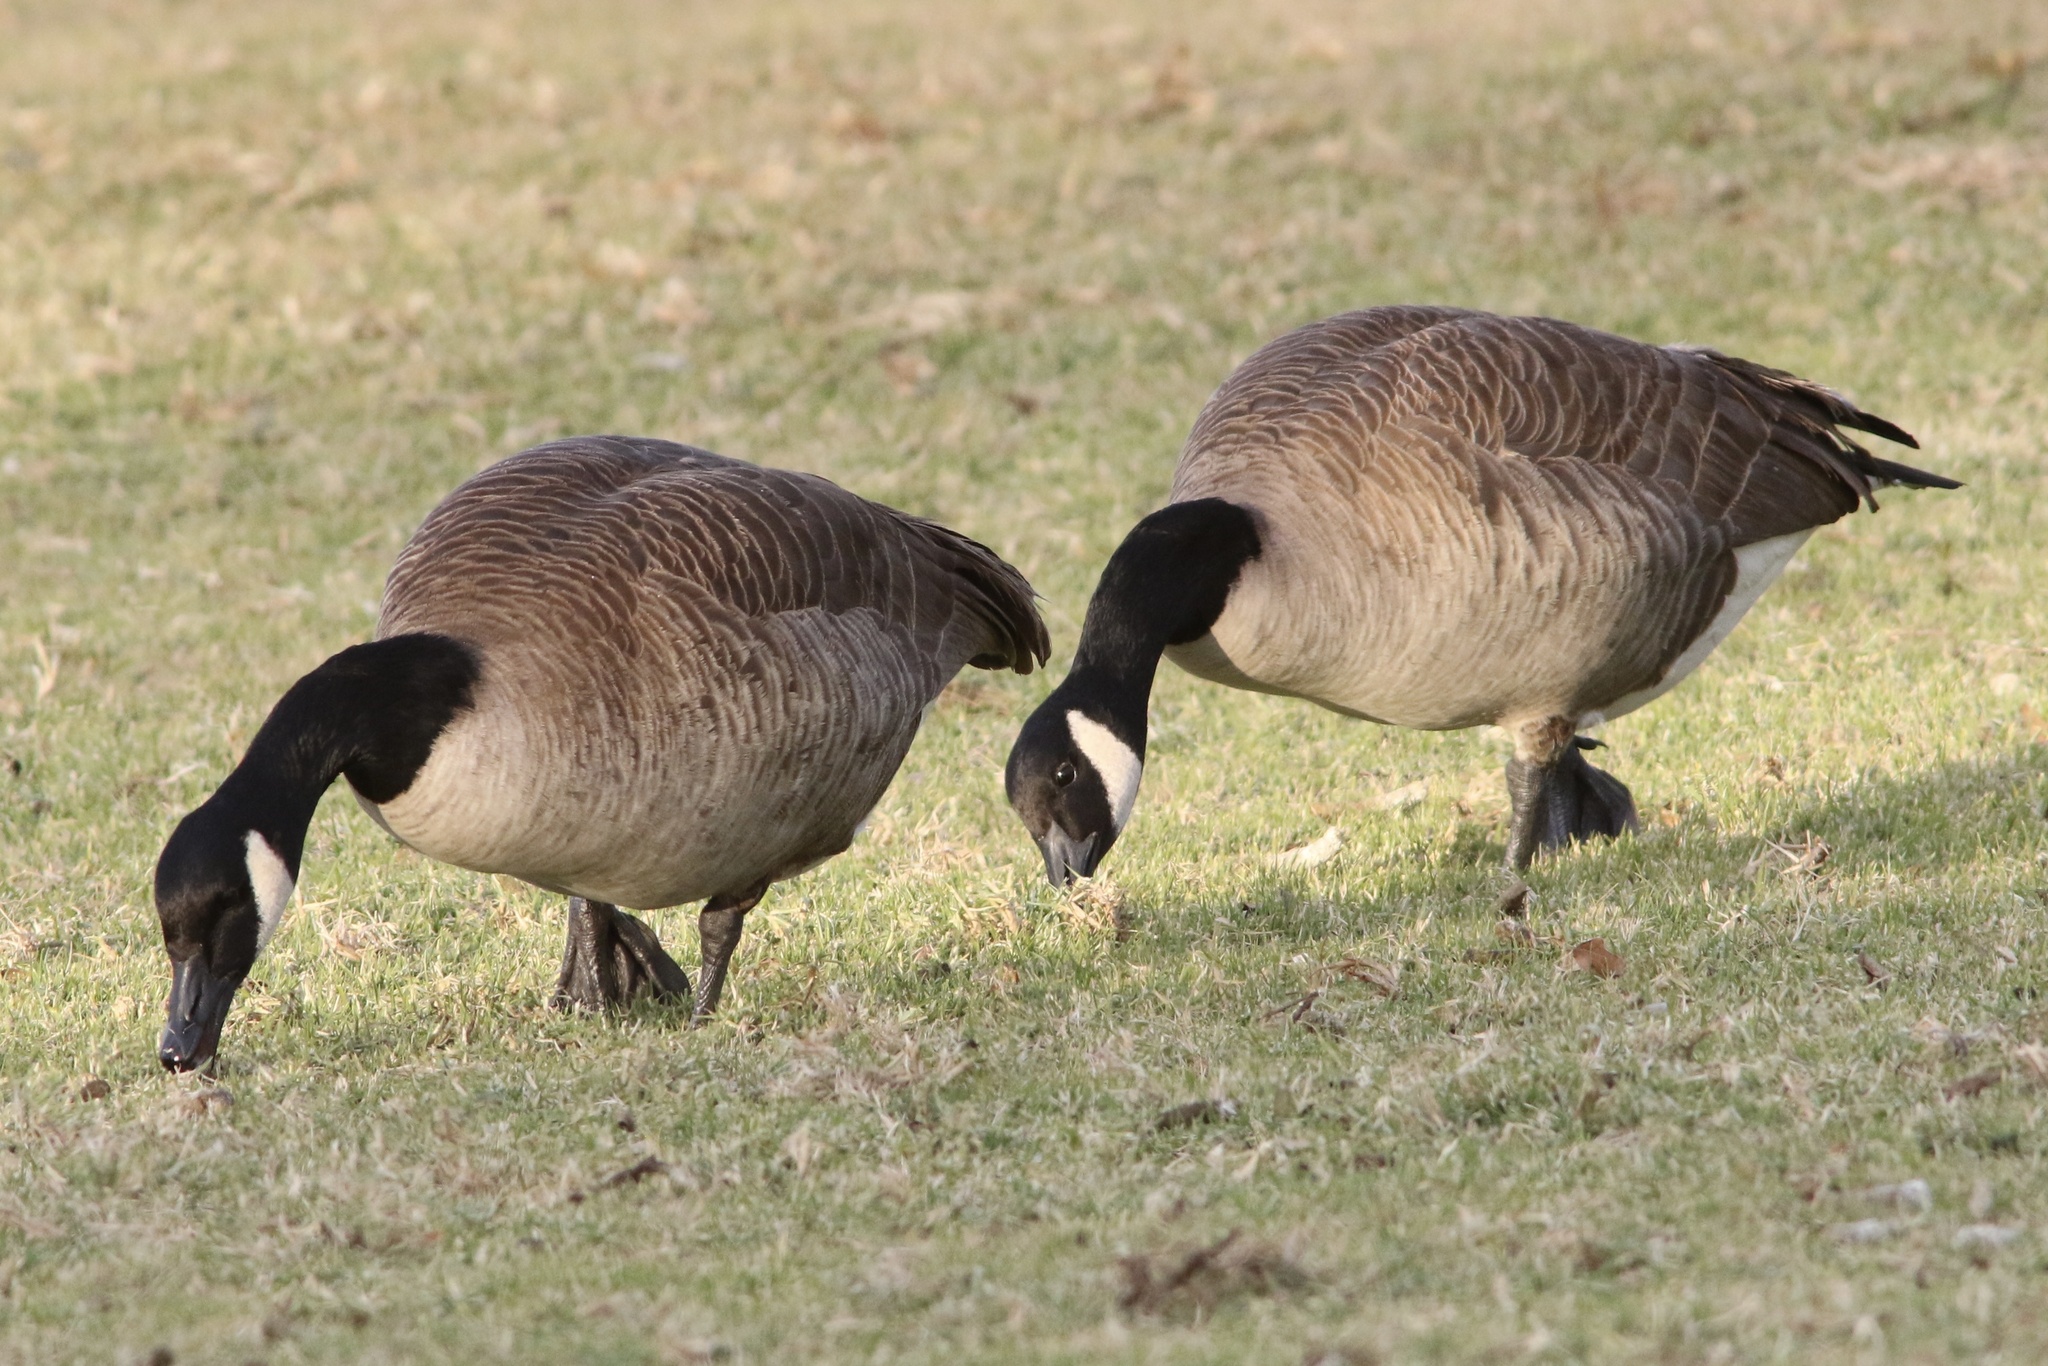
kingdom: Animalia
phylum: Chordata
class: Aves
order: Anseriformes
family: Anatidae
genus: Branta
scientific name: Branta canadensis
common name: Canada goose
